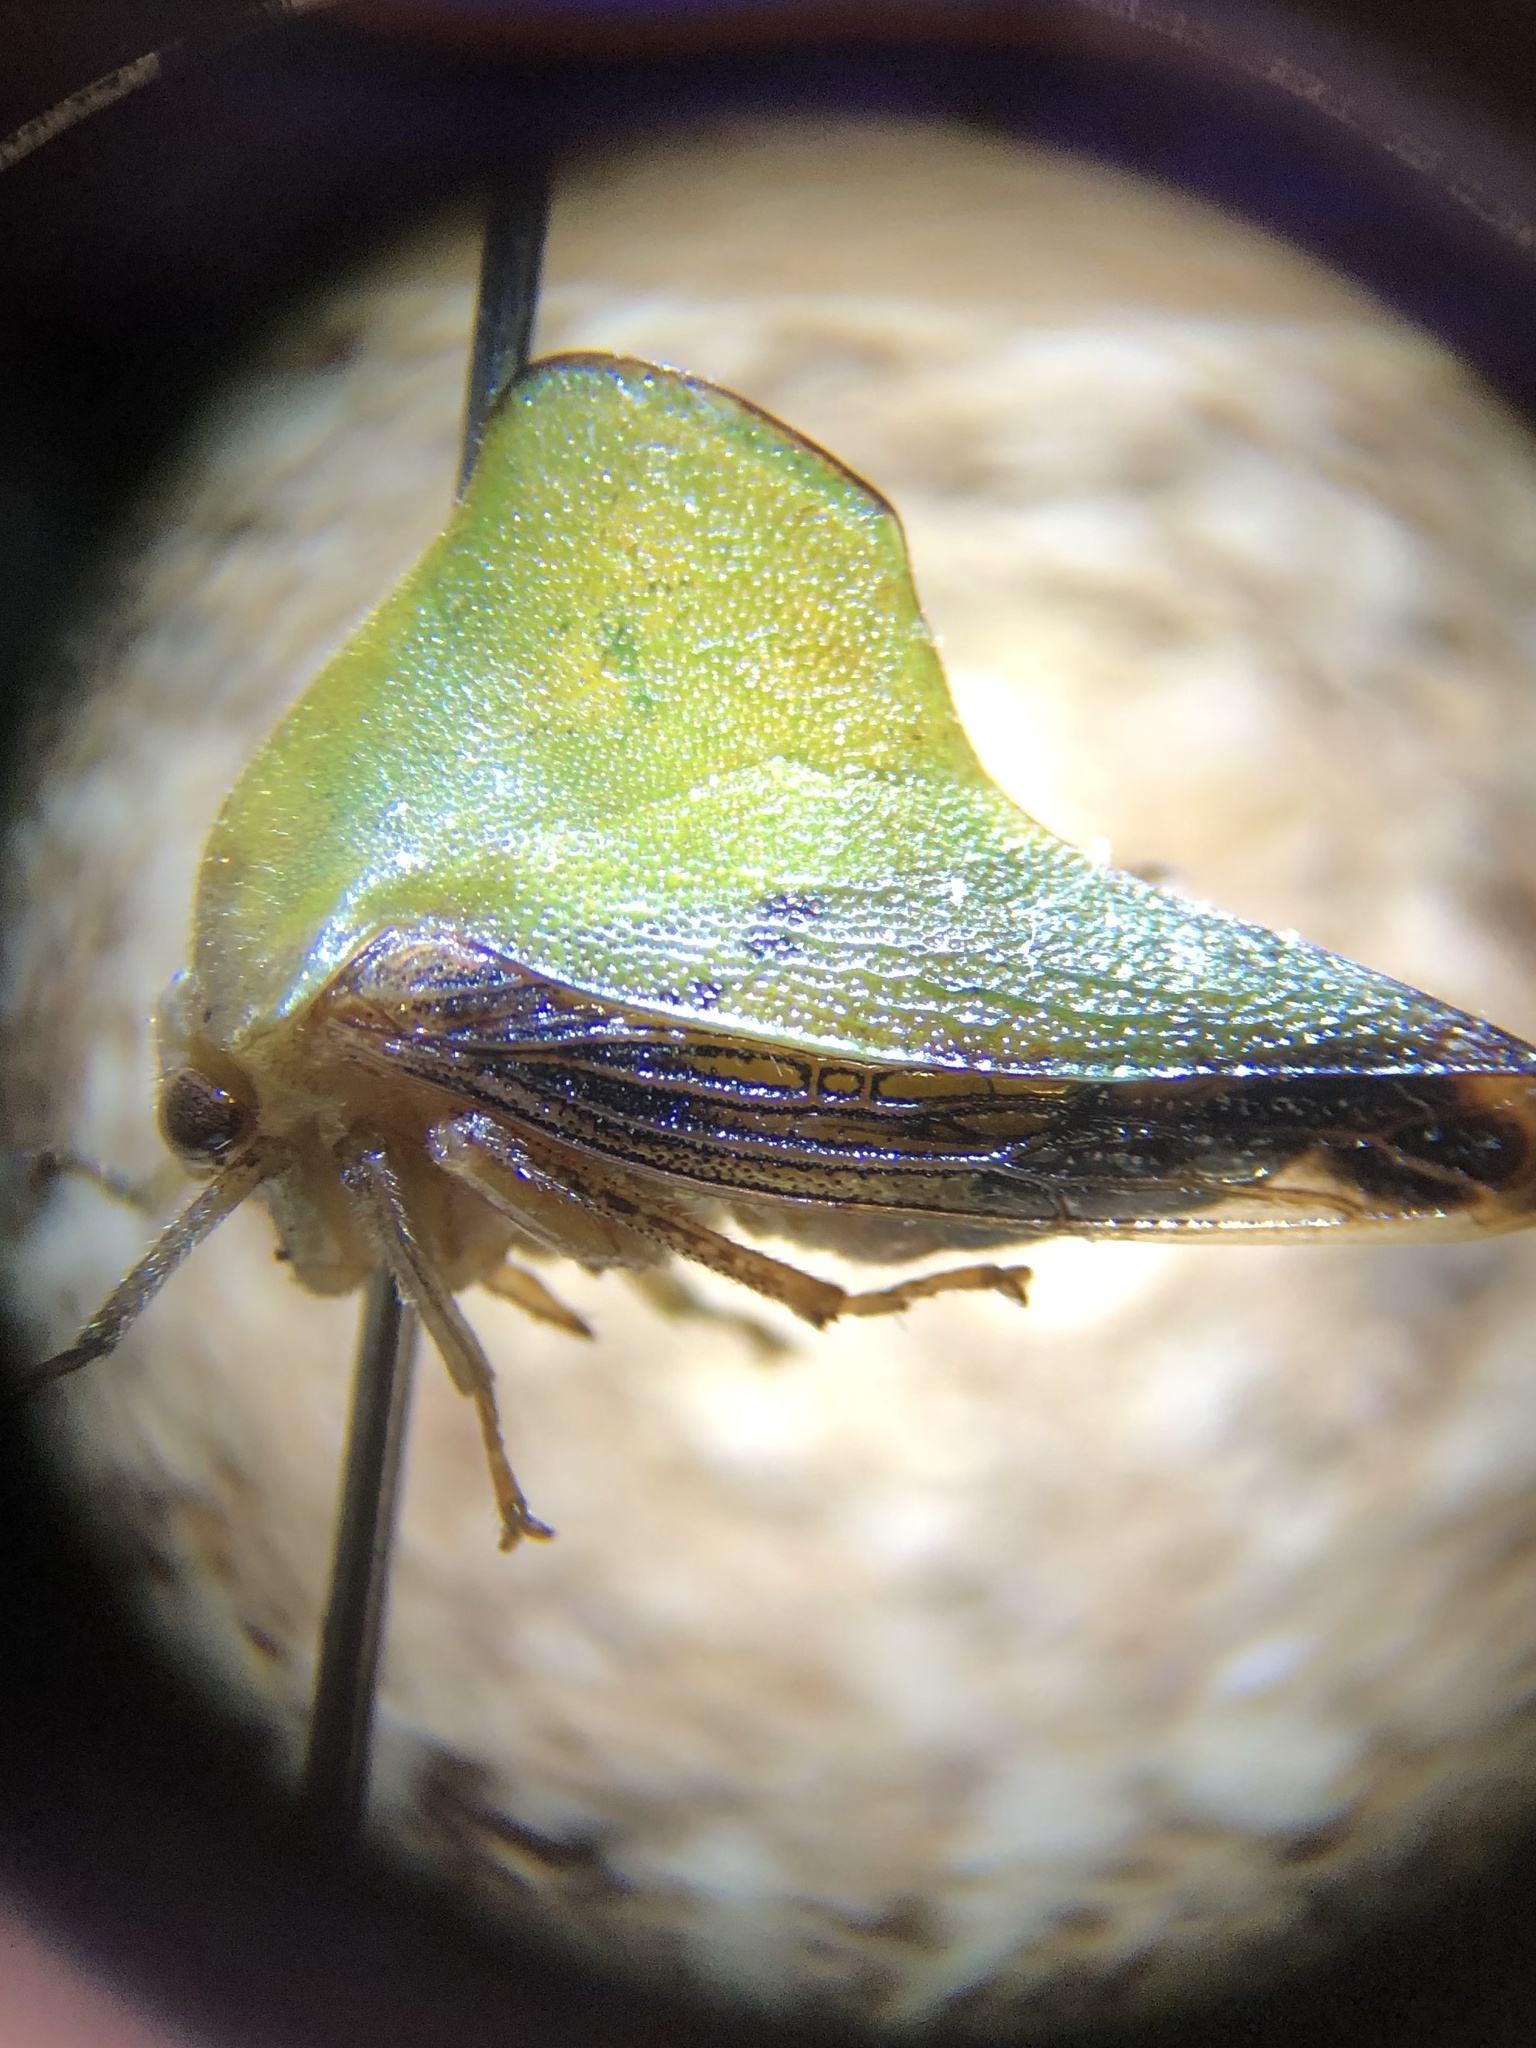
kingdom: Animalia
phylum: Arthropoda
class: Insecta
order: Hemiptera
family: Membracidae
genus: Helonica
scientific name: Helonica excelsa
